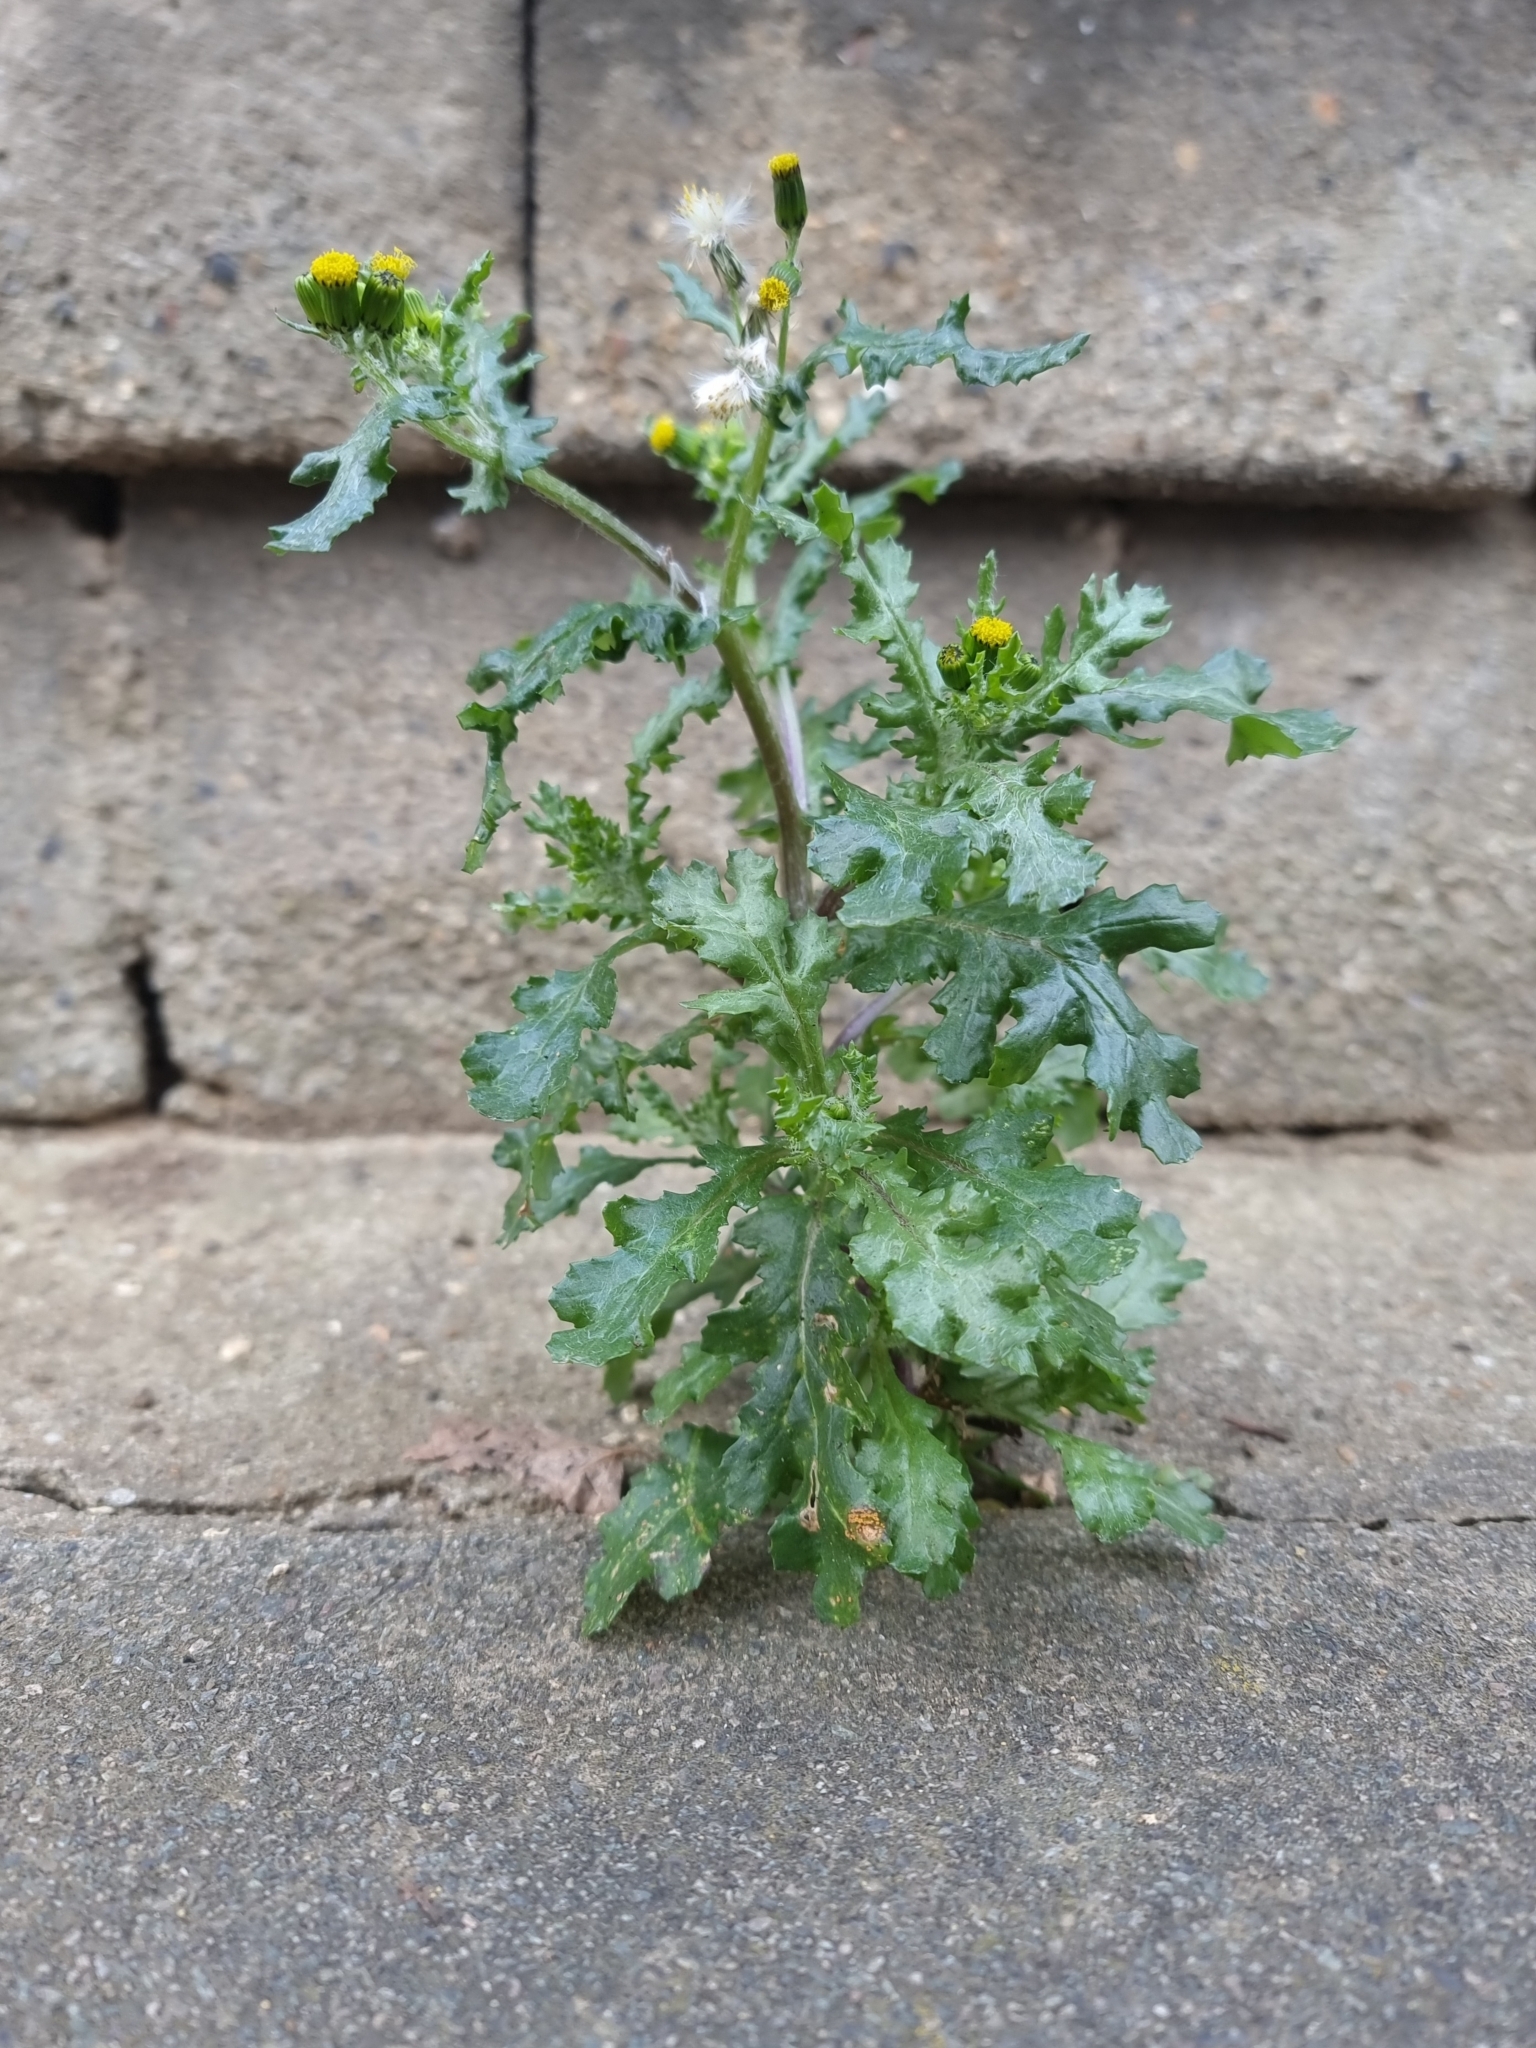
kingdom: Plantae
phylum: Tracheophyta
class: Magnoliopsida
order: Asterales
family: Asteraceae
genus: Senecio
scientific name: Senecio vulgaris
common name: Old-man-in-the-spring
